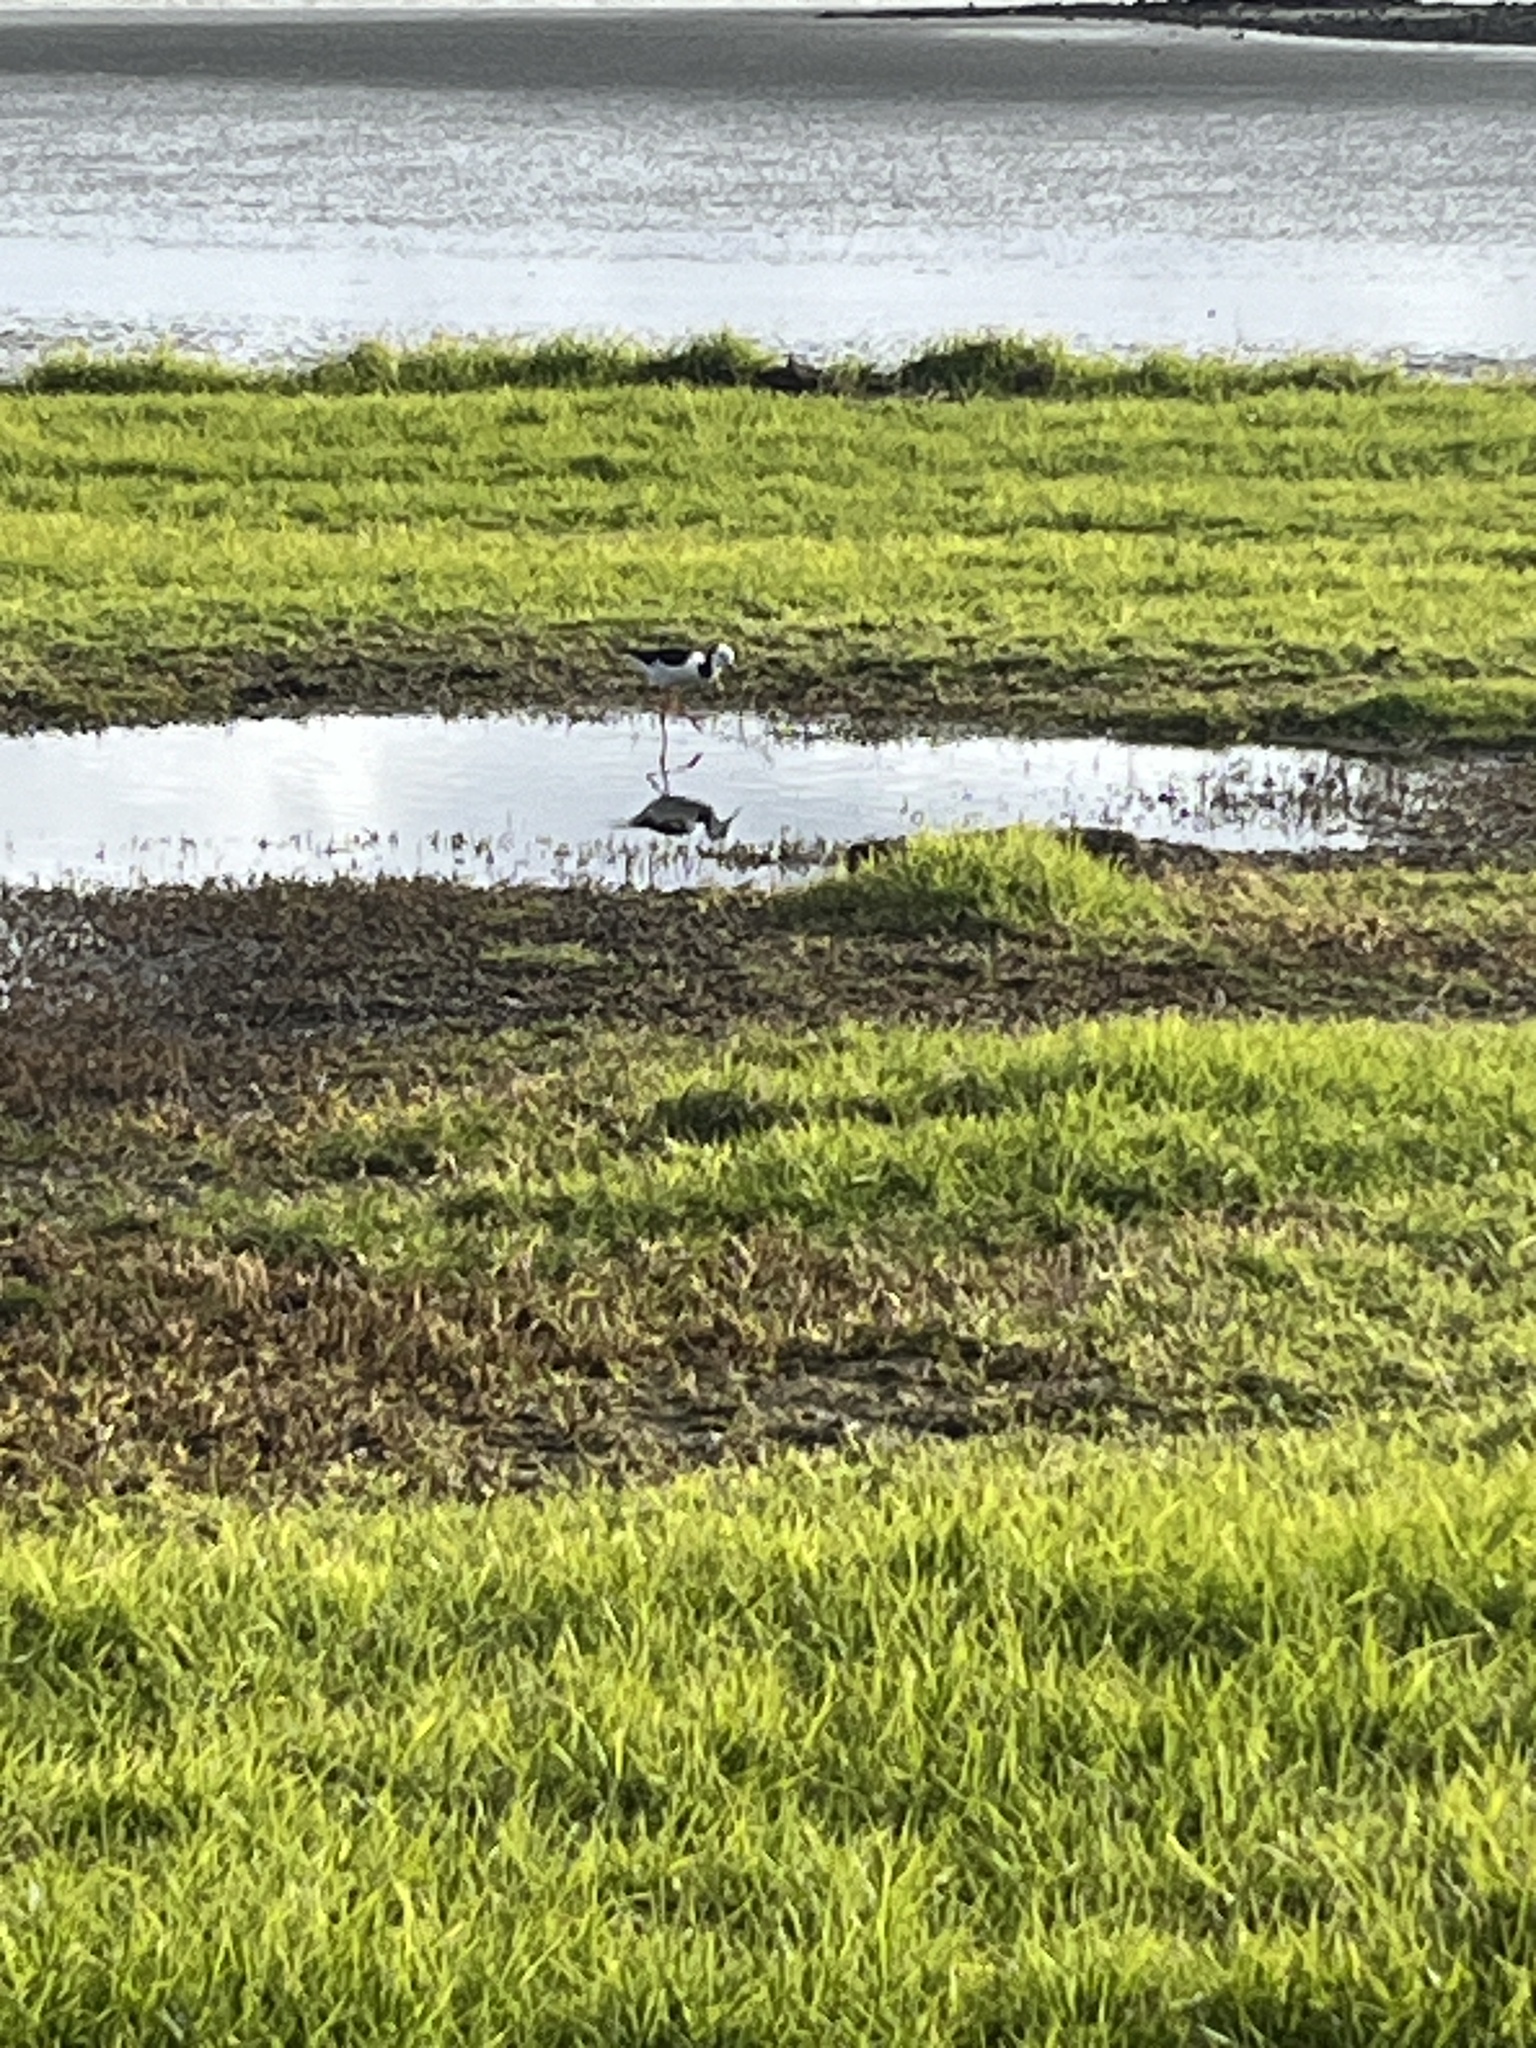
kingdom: Animalia
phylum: Chordata
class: Aves
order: Charadriiformes
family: Recurvirostridae
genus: Himantopus
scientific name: Himantopus leucocephalus
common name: White-headed stilt
